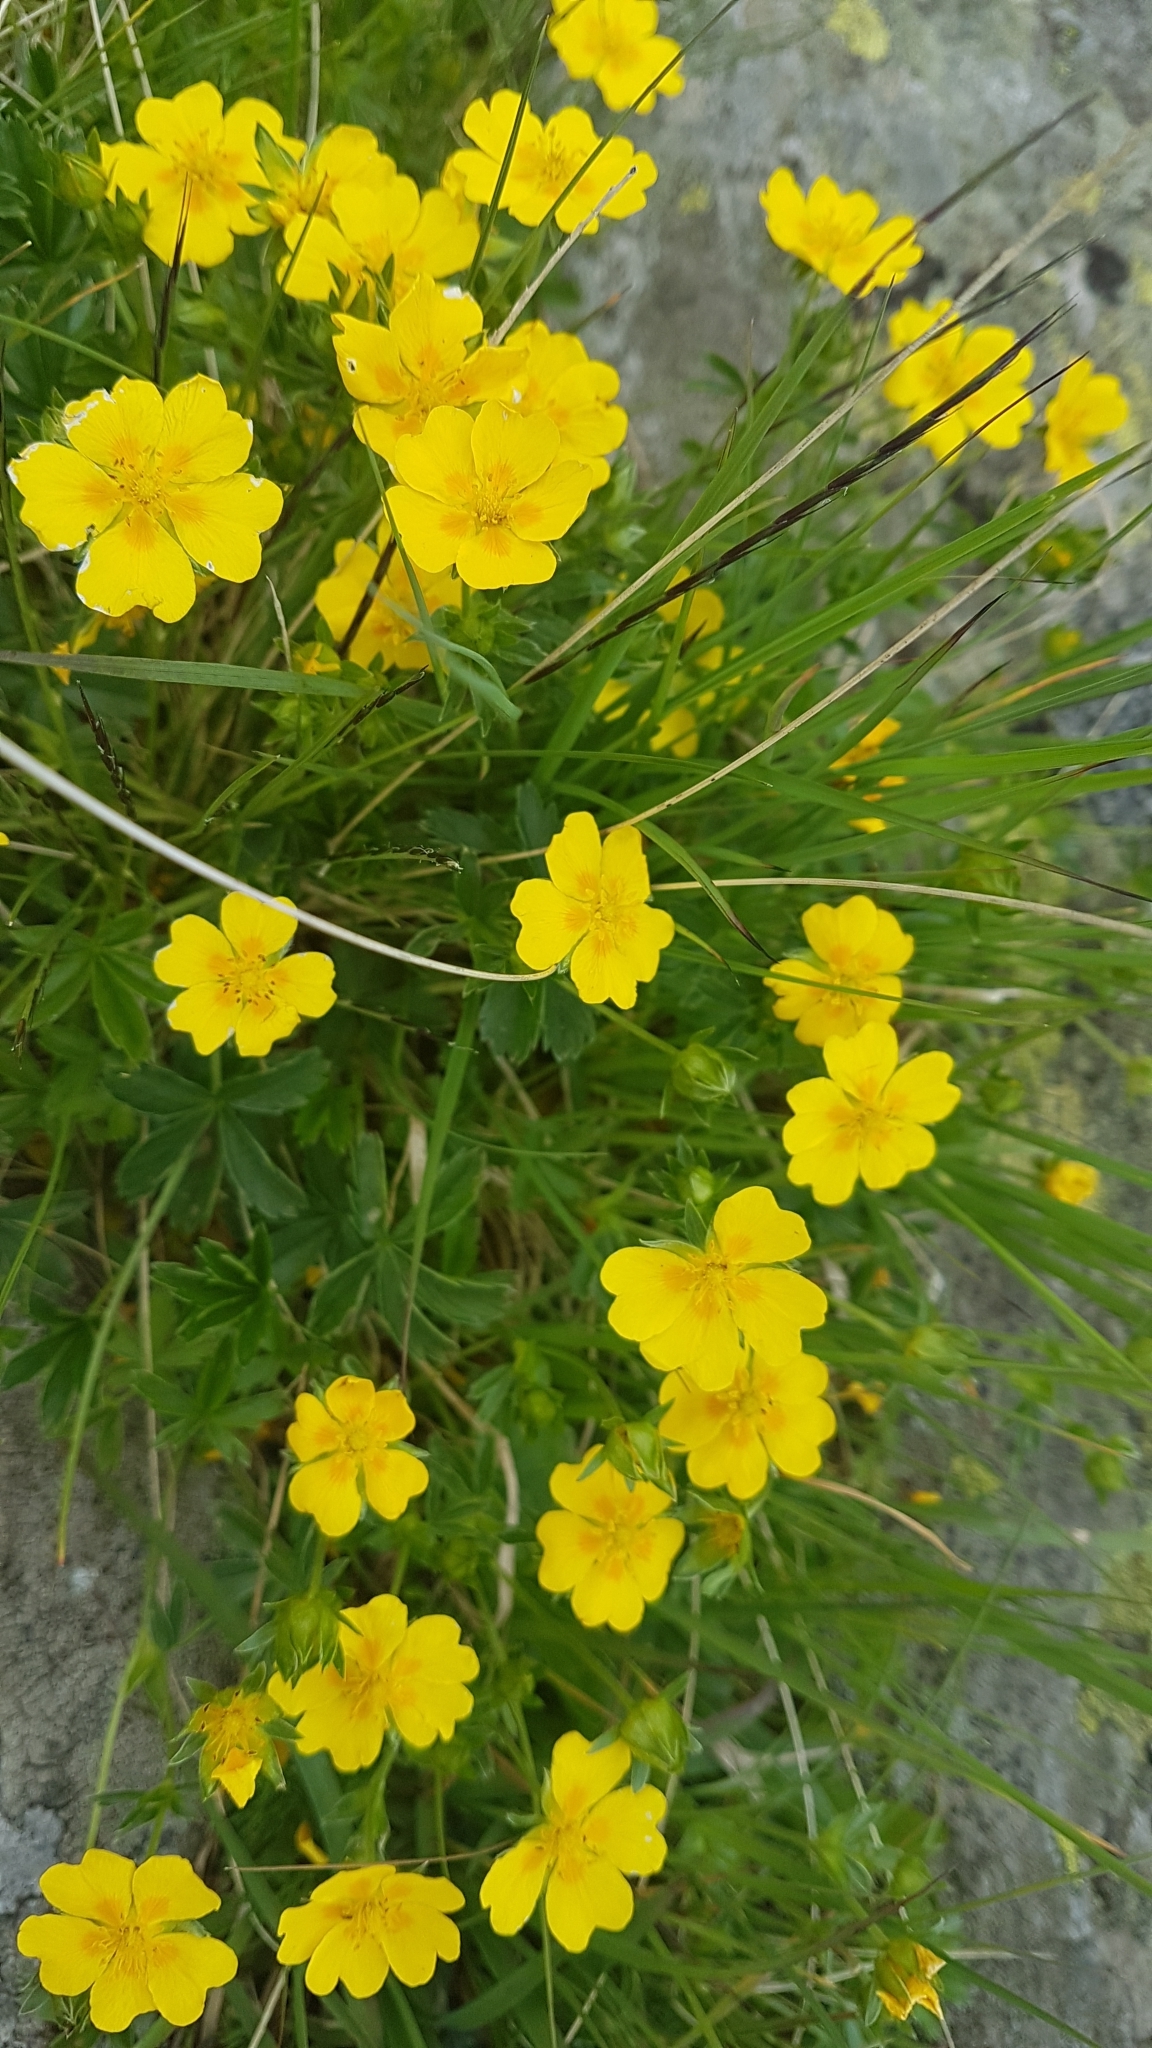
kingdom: Plantae
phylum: Tracheophyta
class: Magnoliopsida
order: Rosales
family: Rosaceae
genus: Potentilla
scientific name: Potentilla aurea
